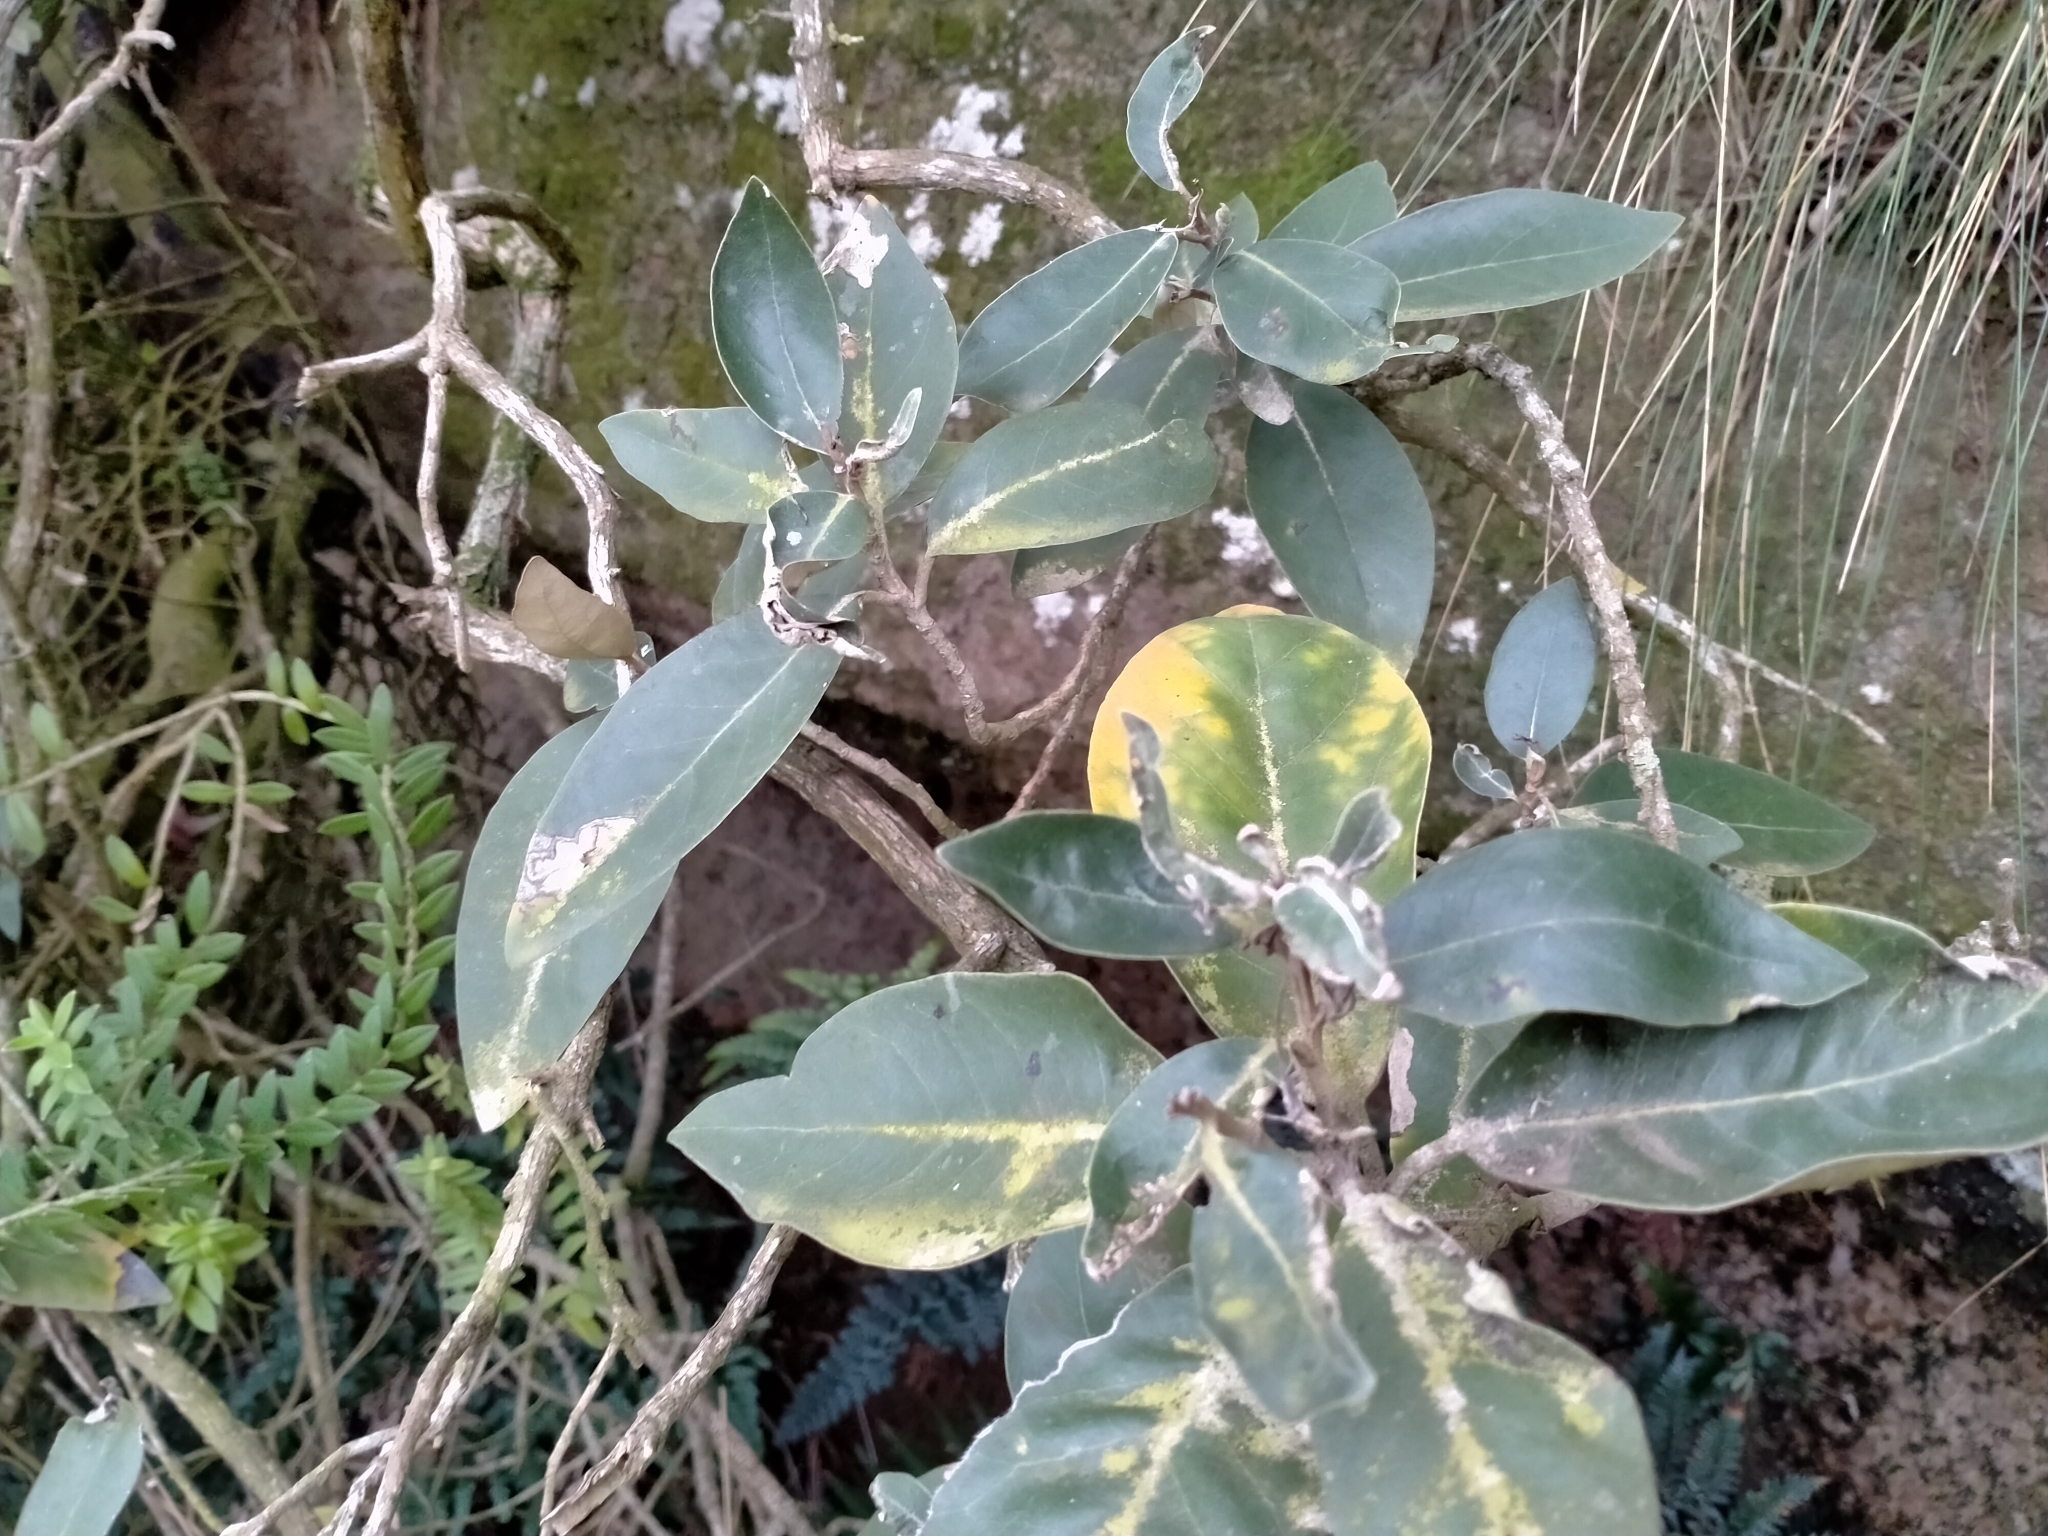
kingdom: Plantae
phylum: Tracheophyta
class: Magnoliopsida
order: Asterales
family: Asteraceae
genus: Olearia
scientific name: Olearia avicenniifolia
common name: Mangrove-leaf daisybush
